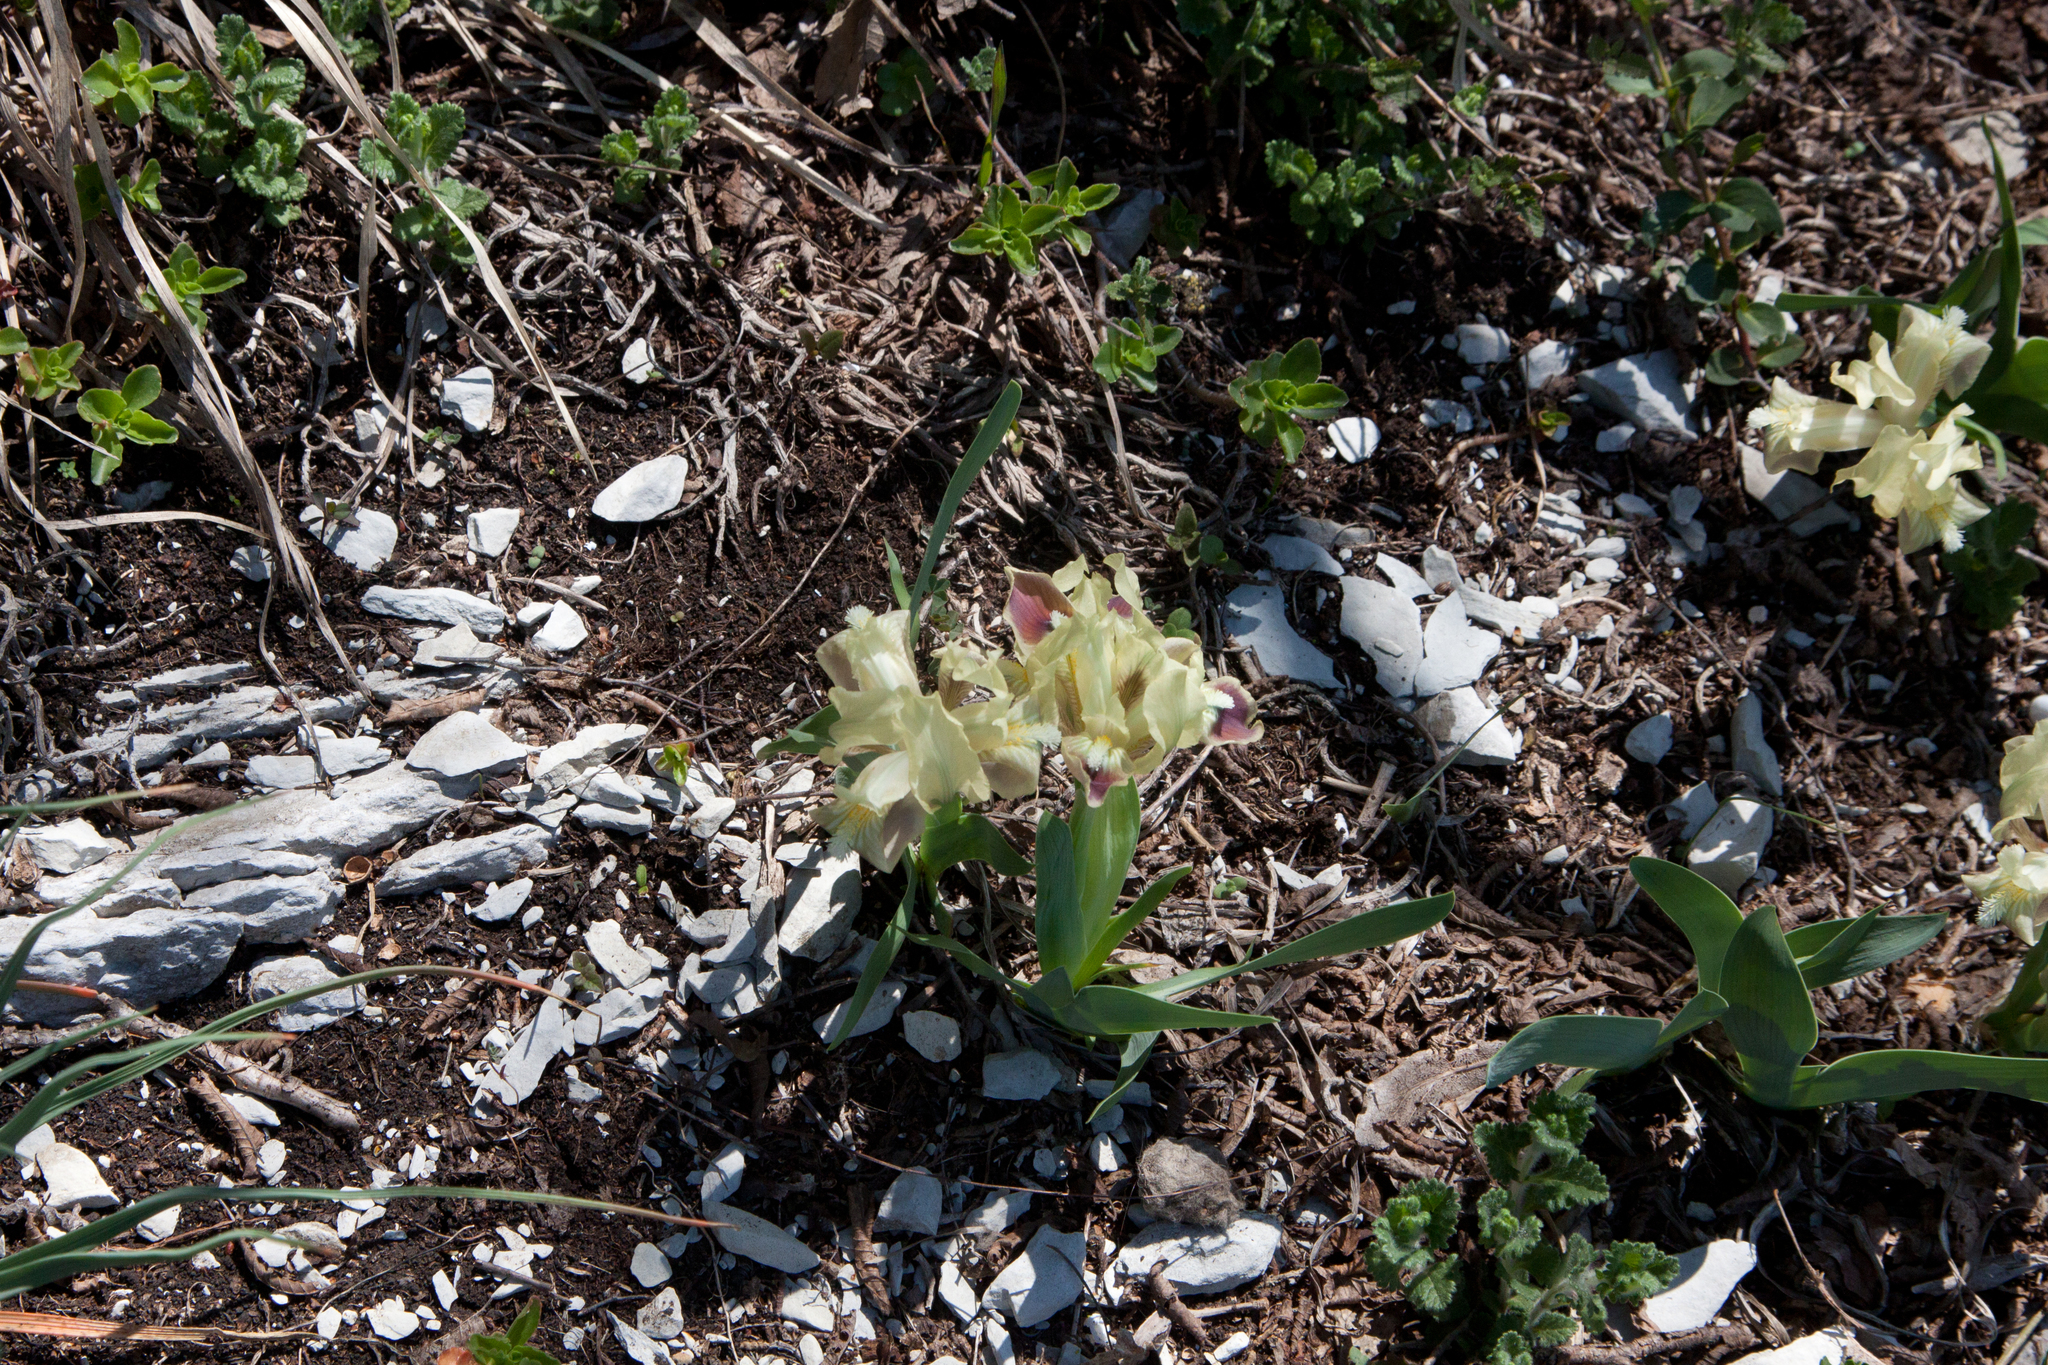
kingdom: Plantae
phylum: Tracheophyta
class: Liliopsida
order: Asparagales
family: Iridaceae
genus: Iris
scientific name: Iris pumila
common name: Dwarf iris
